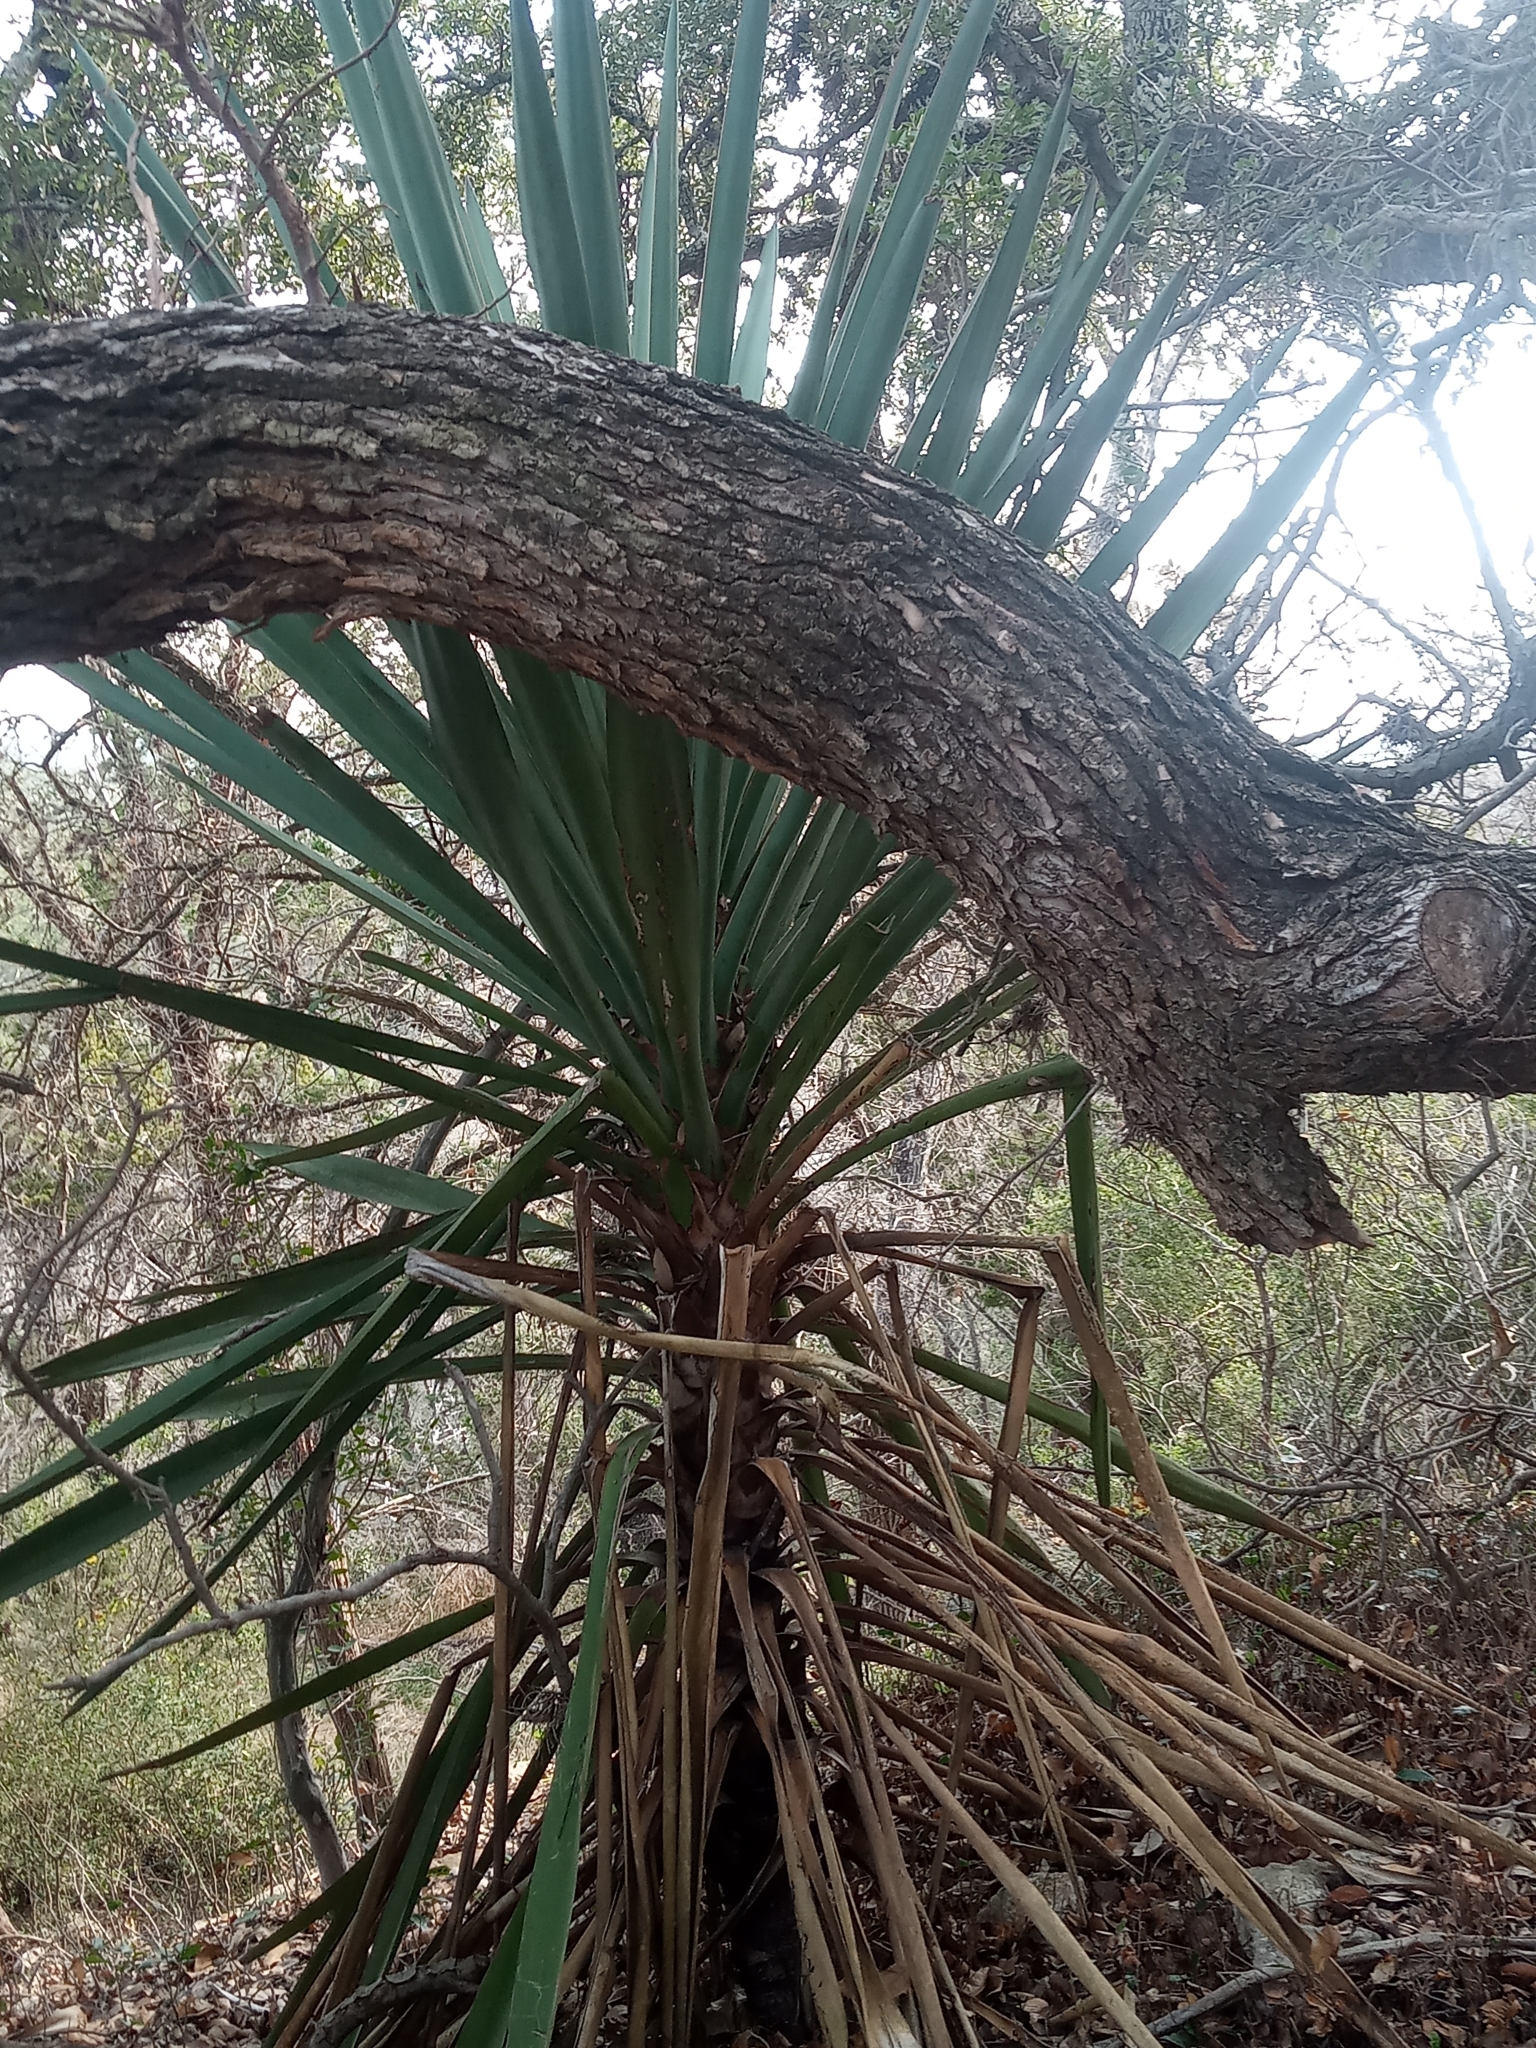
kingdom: Plantae
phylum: Tracheophyta
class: Liliopsida
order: Asparagales
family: Asparagaceae
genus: Yucca
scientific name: Yucca treculiana
